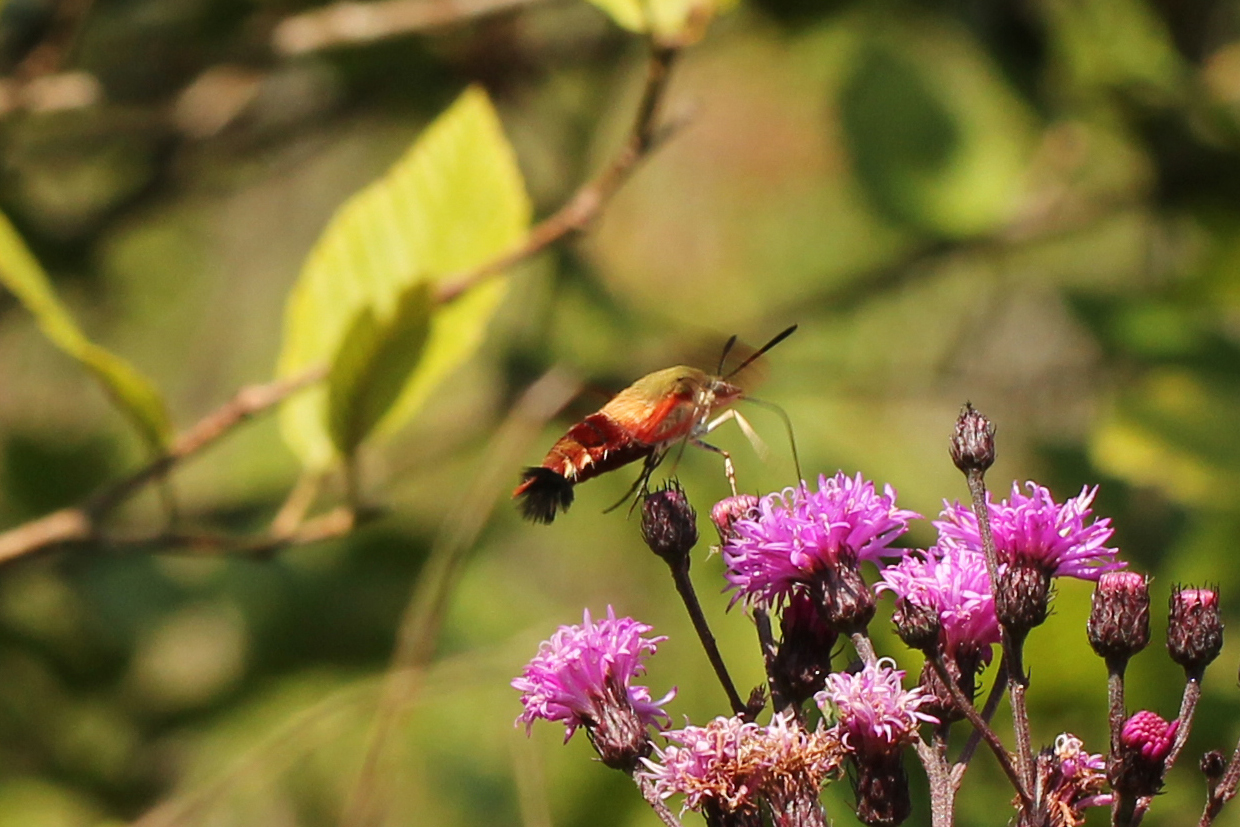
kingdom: Animalia
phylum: Arthropoda
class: Insecta
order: Lepidoptera
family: Sphingidae
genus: Hemaris
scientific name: Hemaris thysbe
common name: Common clear-wing
